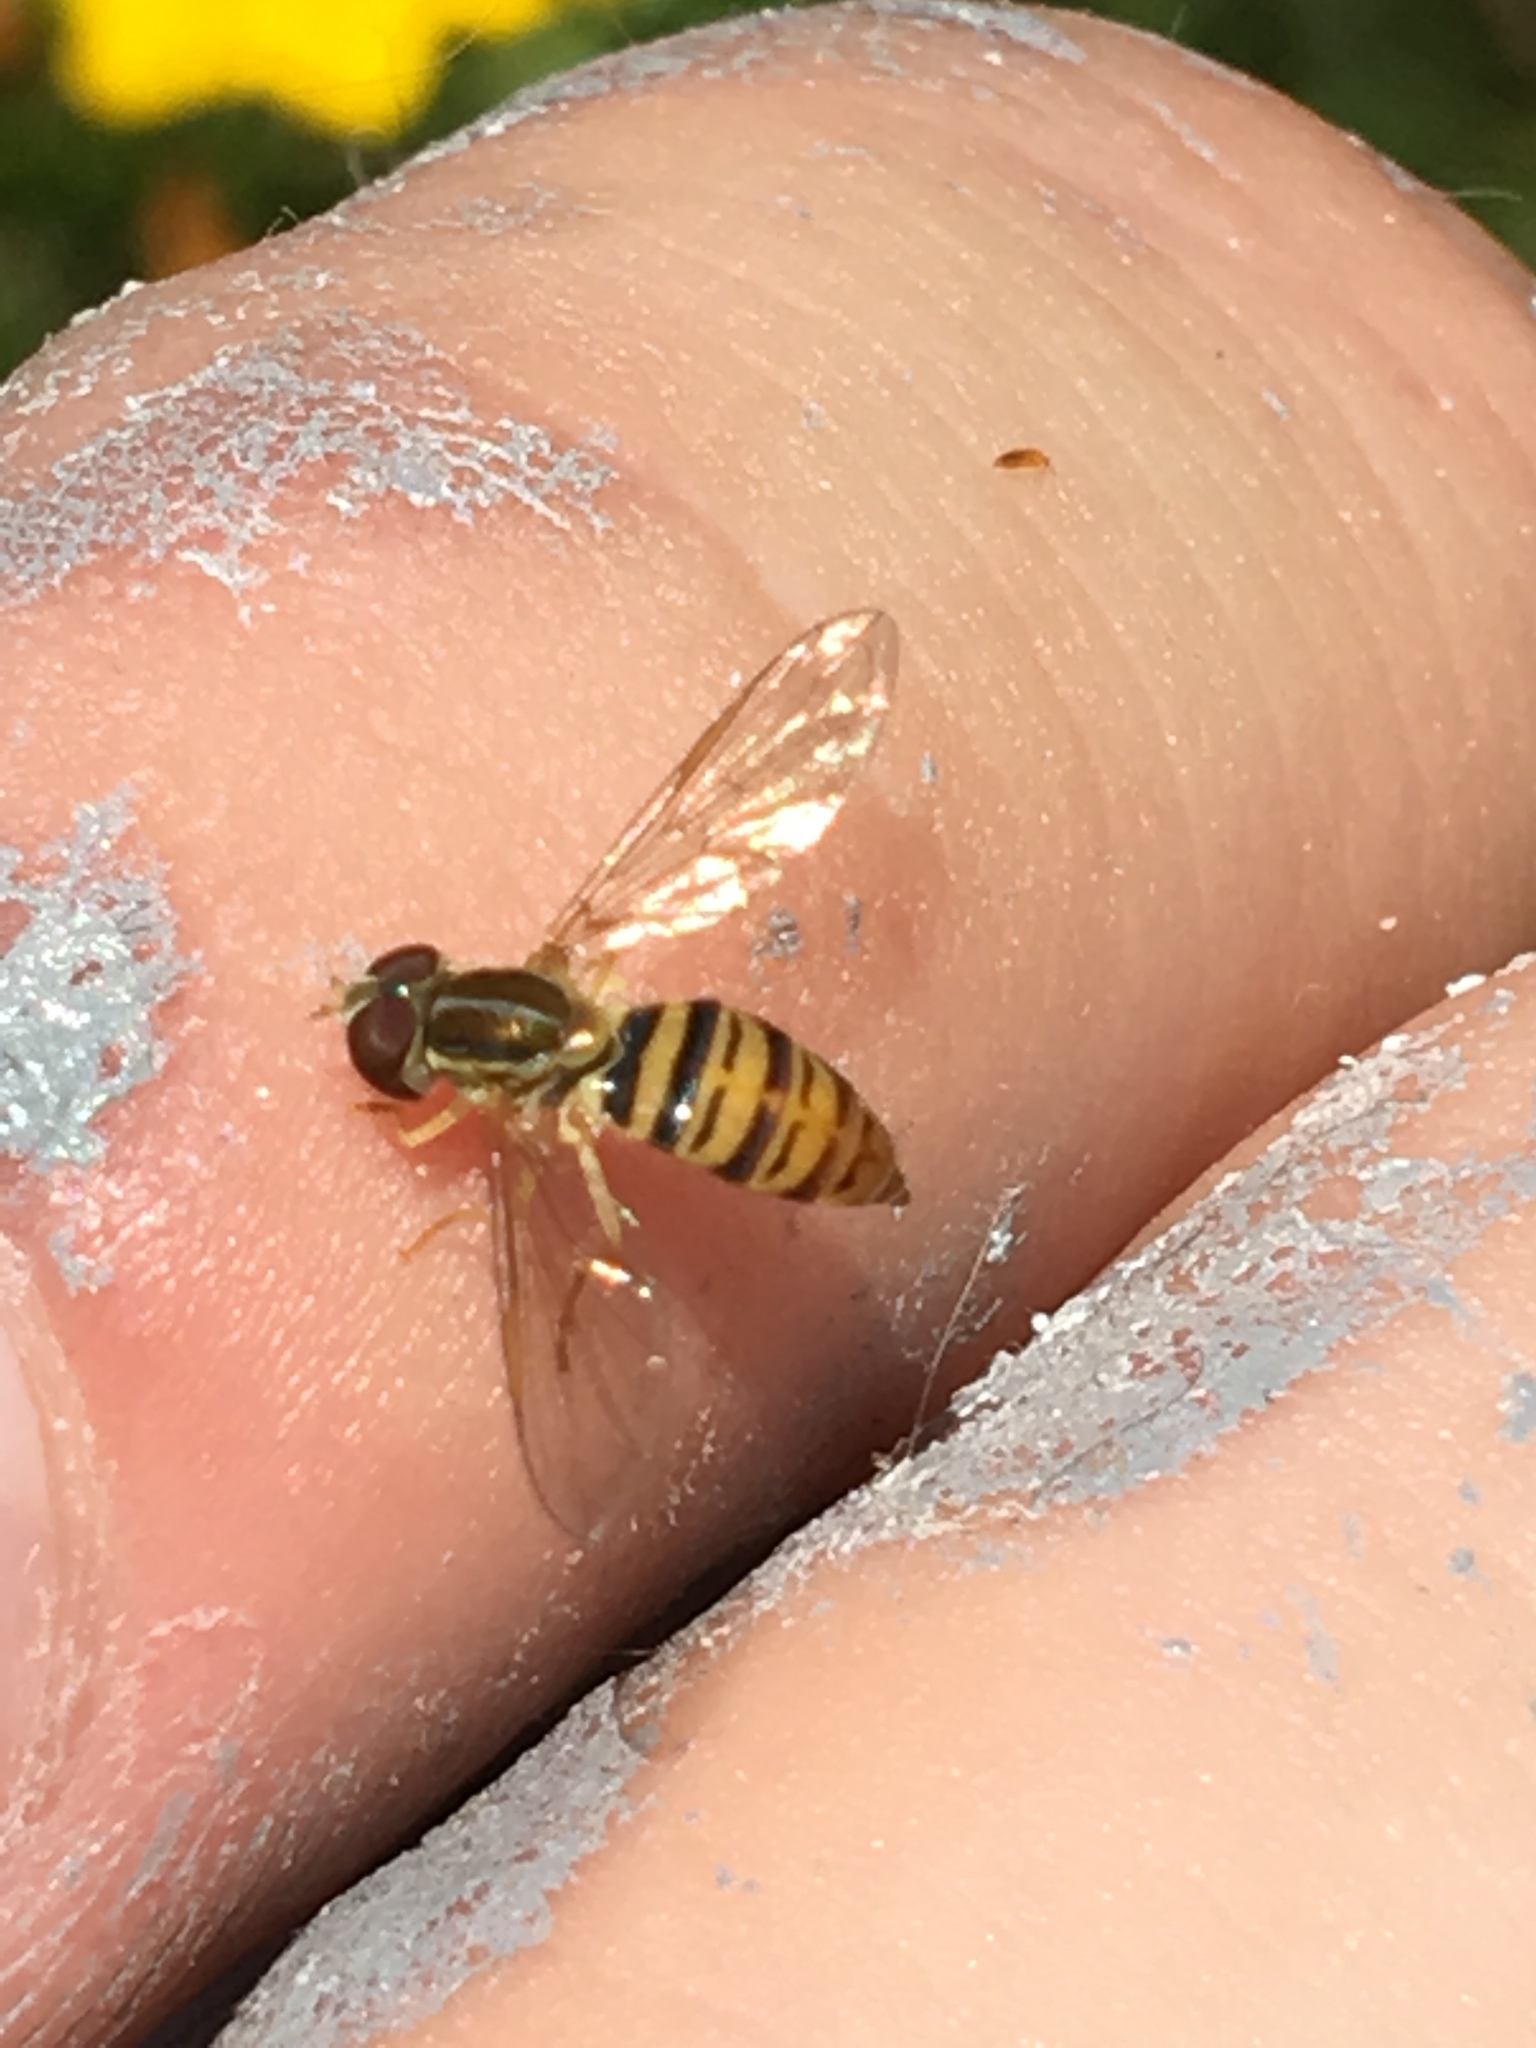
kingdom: Animalia
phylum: Arthropoda
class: Insecta
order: Diptera
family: Syrphidae
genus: Toxomerus
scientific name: Toxomerus politus
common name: Maize calligrapher
